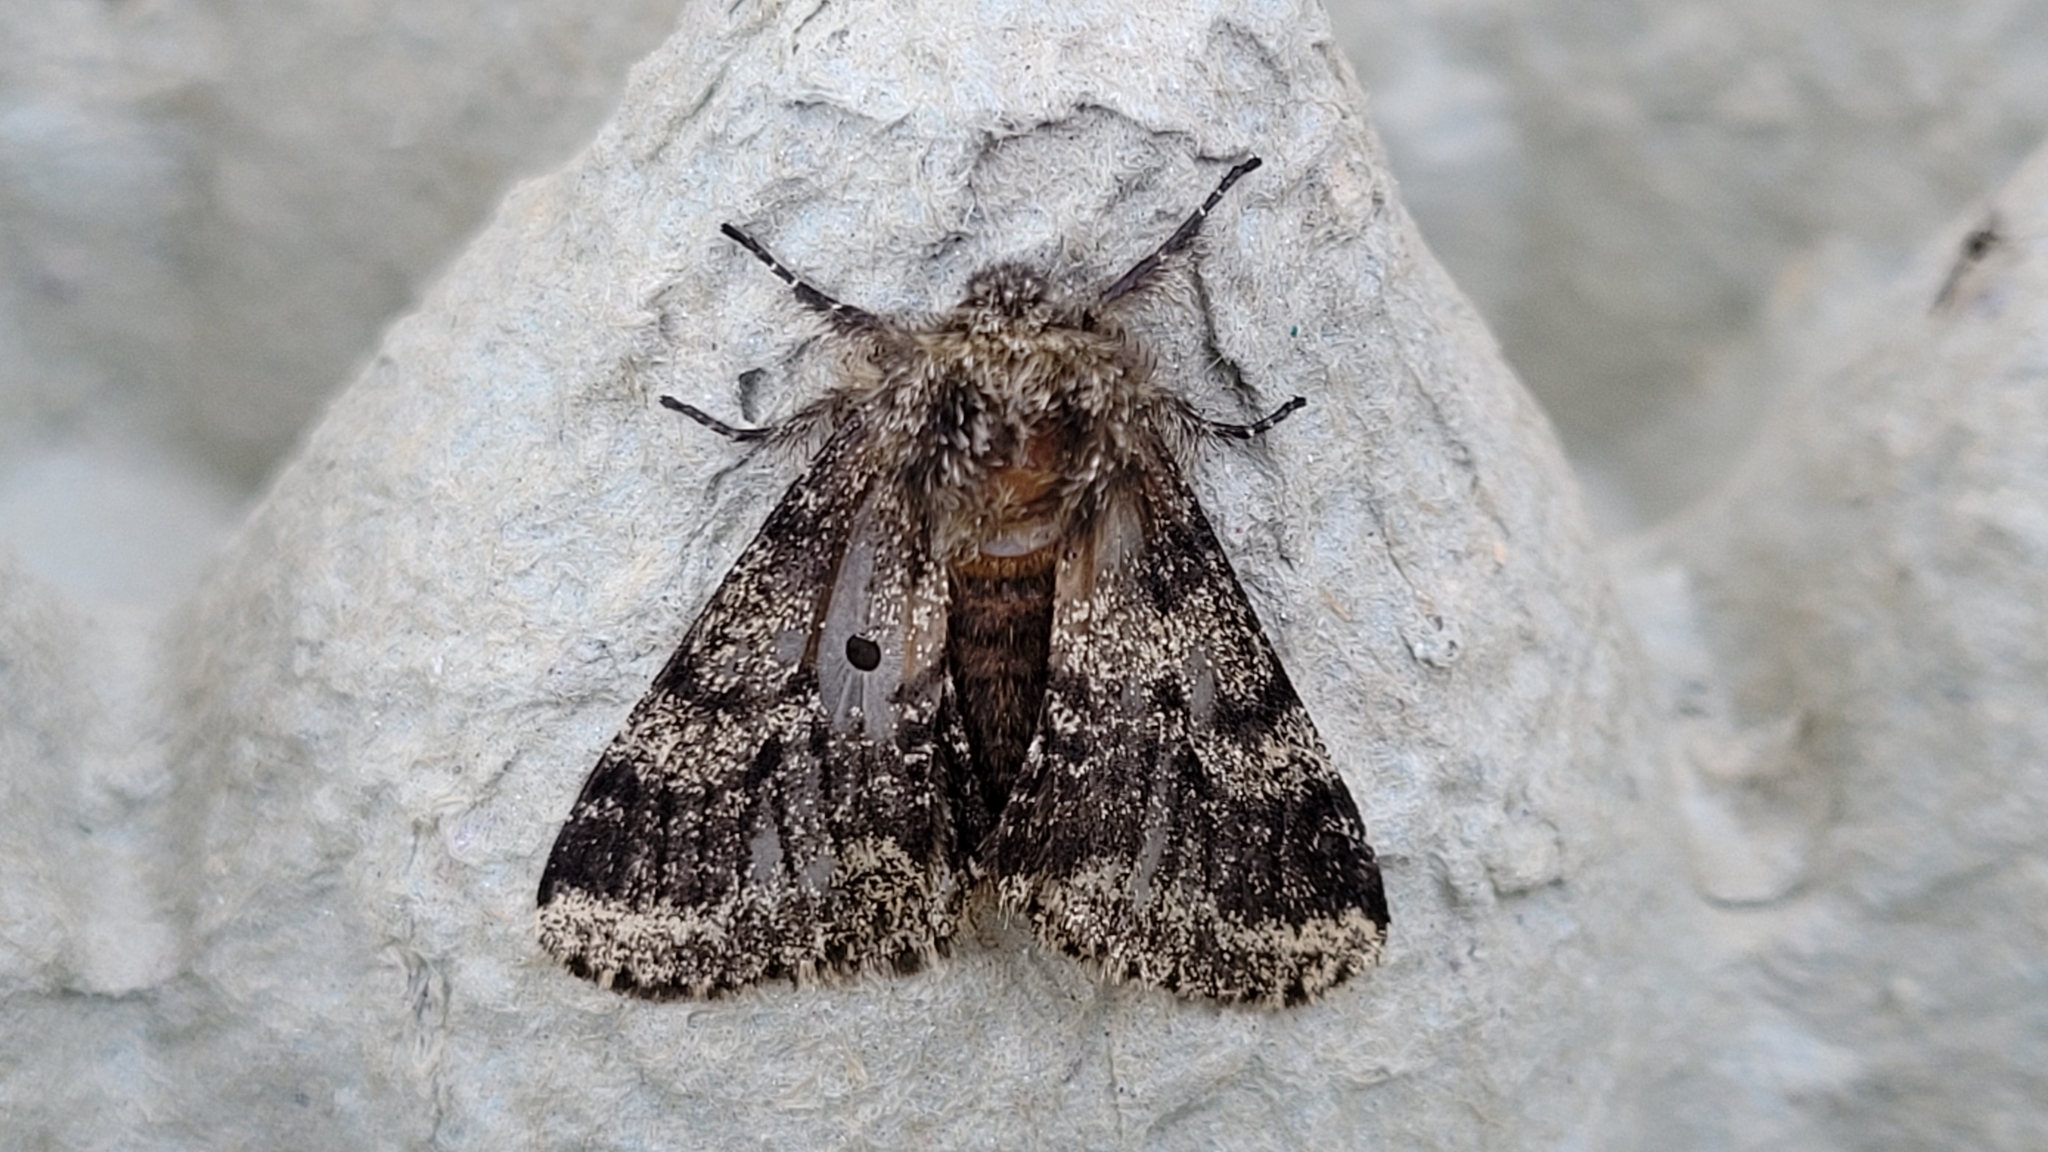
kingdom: Animalia
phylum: Arthropoda
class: Insecta
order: Lepidoptera
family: Geometridae
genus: Lycia
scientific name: Lycia hirtaria
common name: Brindled beauty
